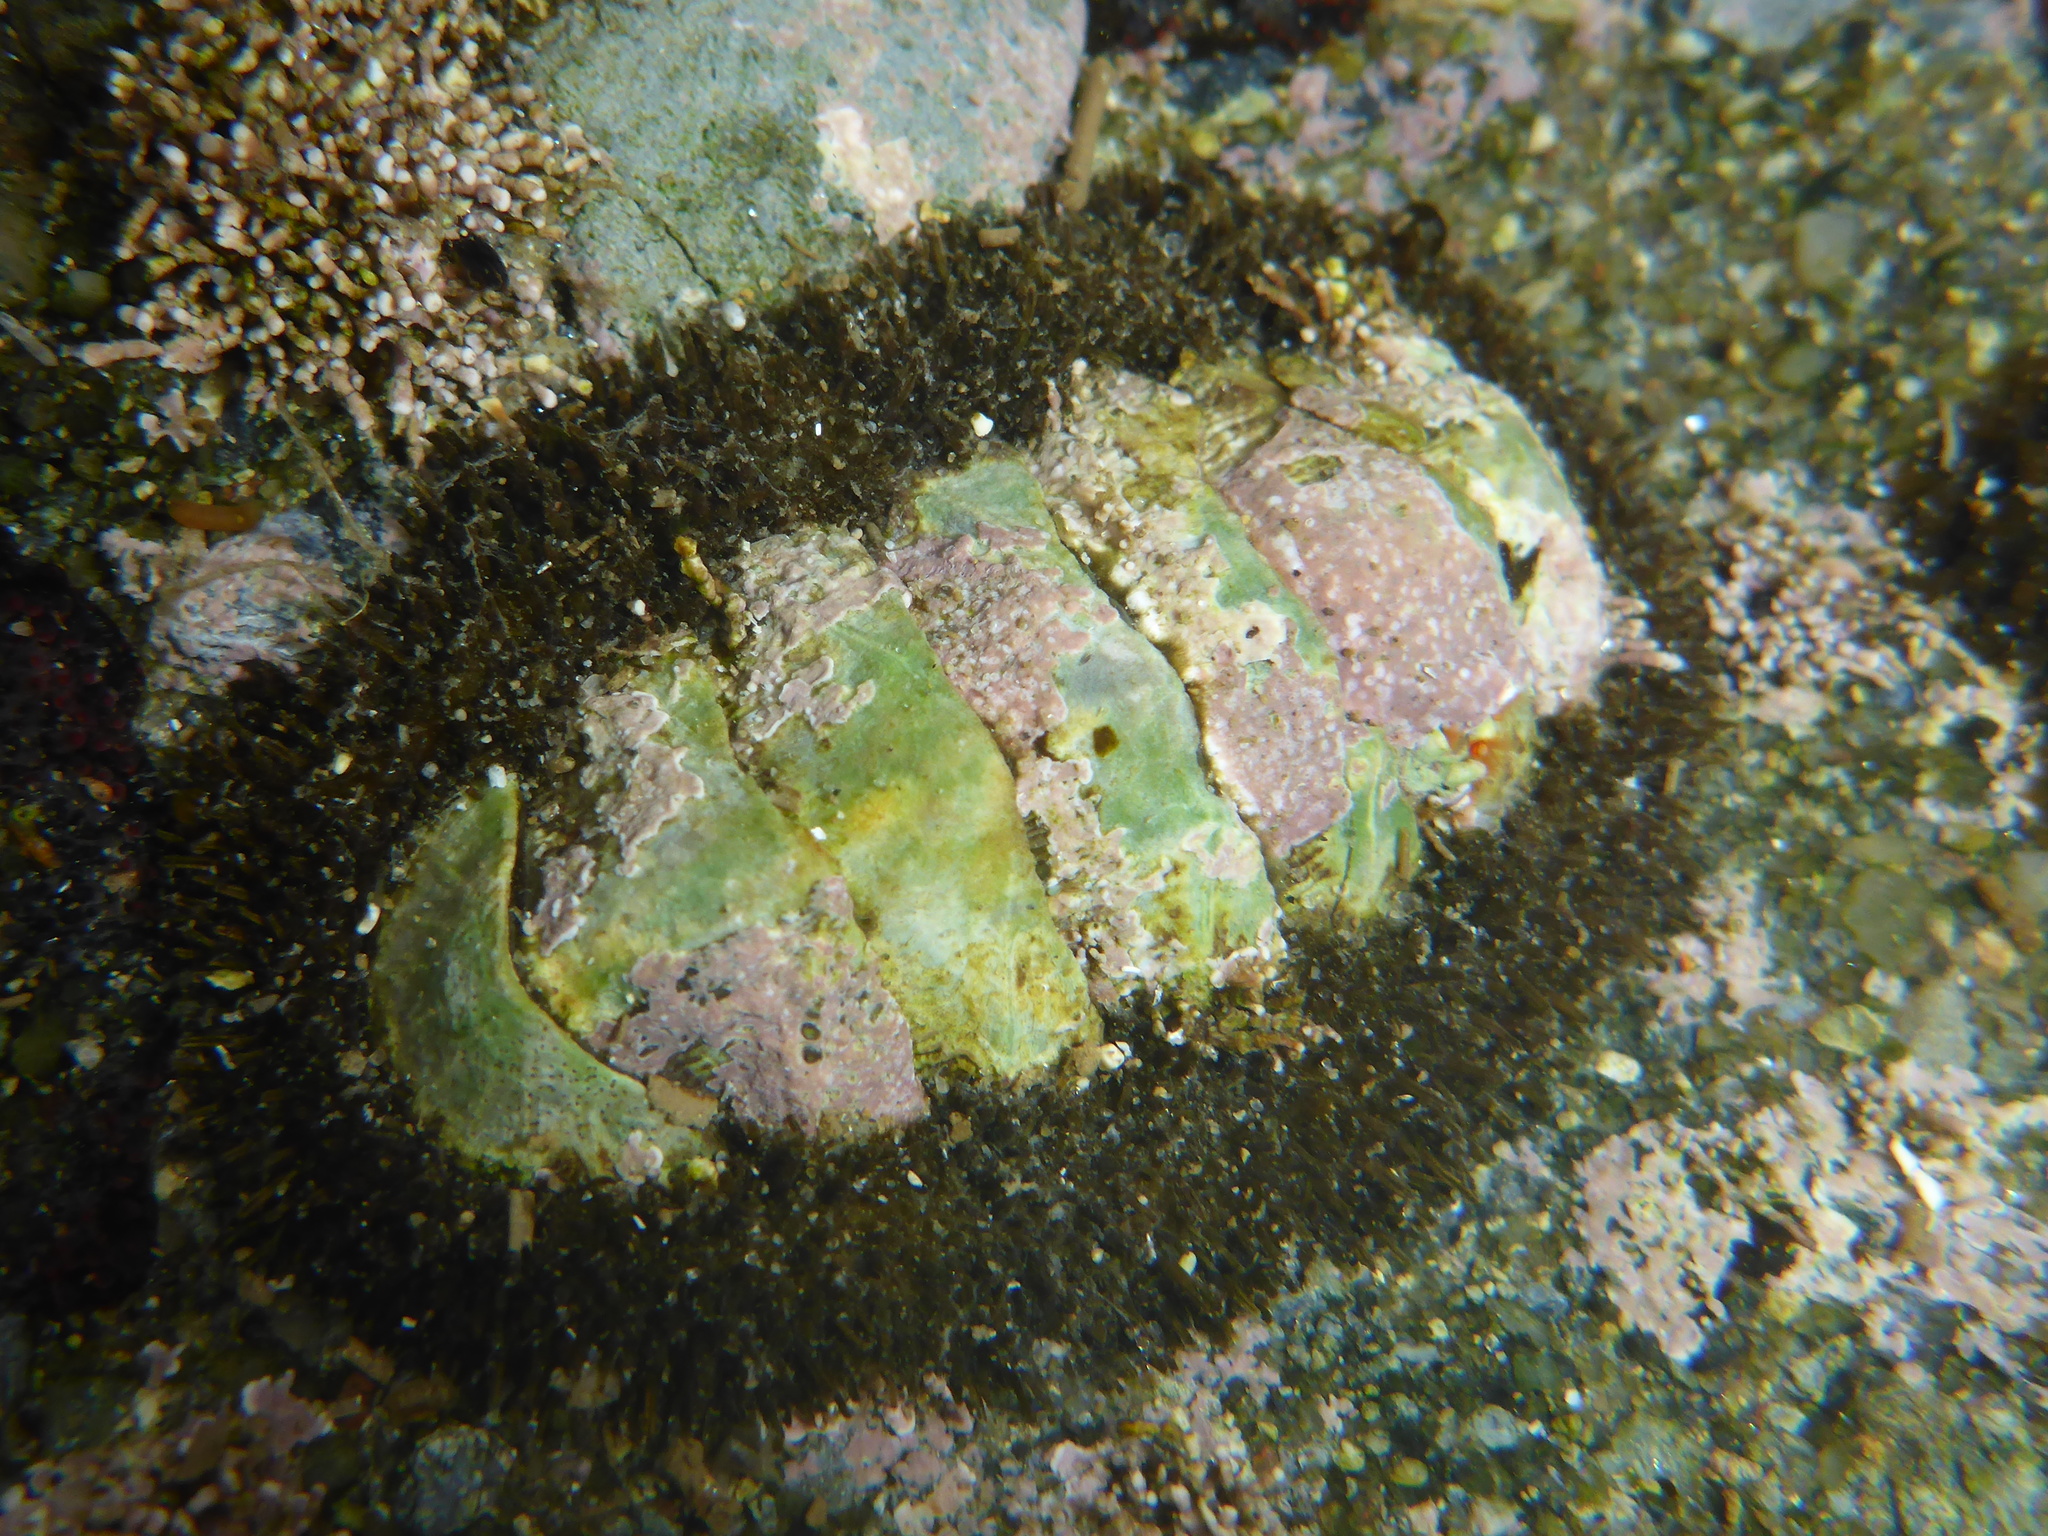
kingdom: Animalia
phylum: Mollusca
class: Polyplacophora
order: Chitonida
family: Mopaliidae
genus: Mopalia
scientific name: Mopalia muscosa
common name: Mossy chiton
